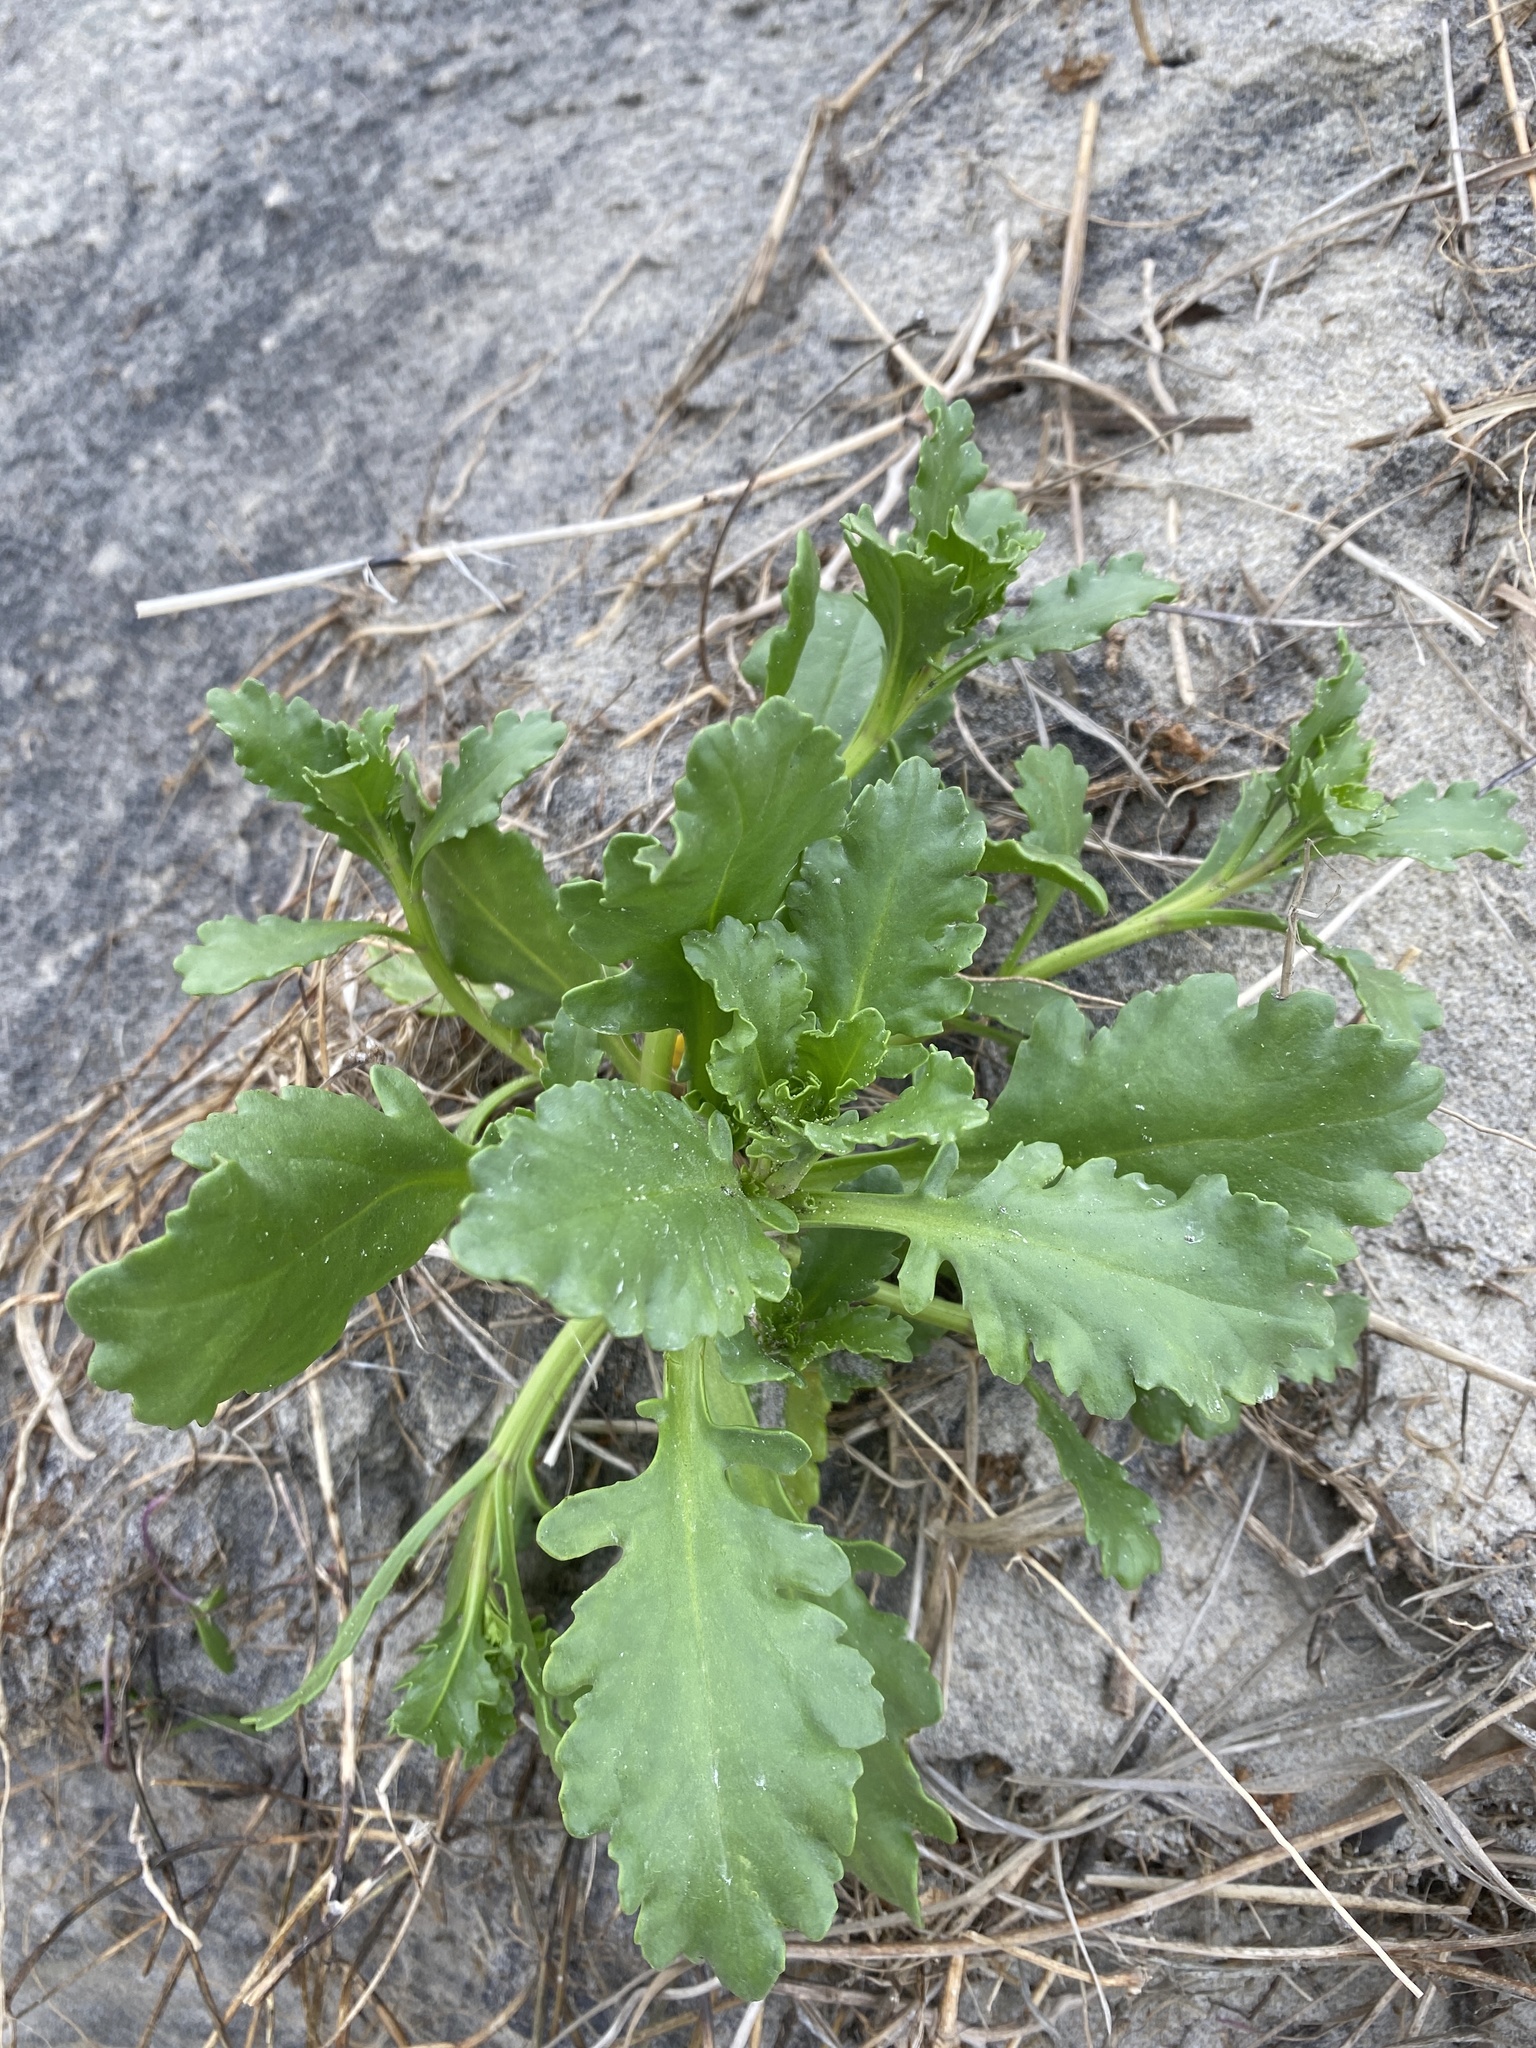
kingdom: Plantae
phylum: Tracheophyta
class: Magnoliopsida
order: Brassicales
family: Brassicaceae
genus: Cakile
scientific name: Cakile edentula
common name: American sea rocket
